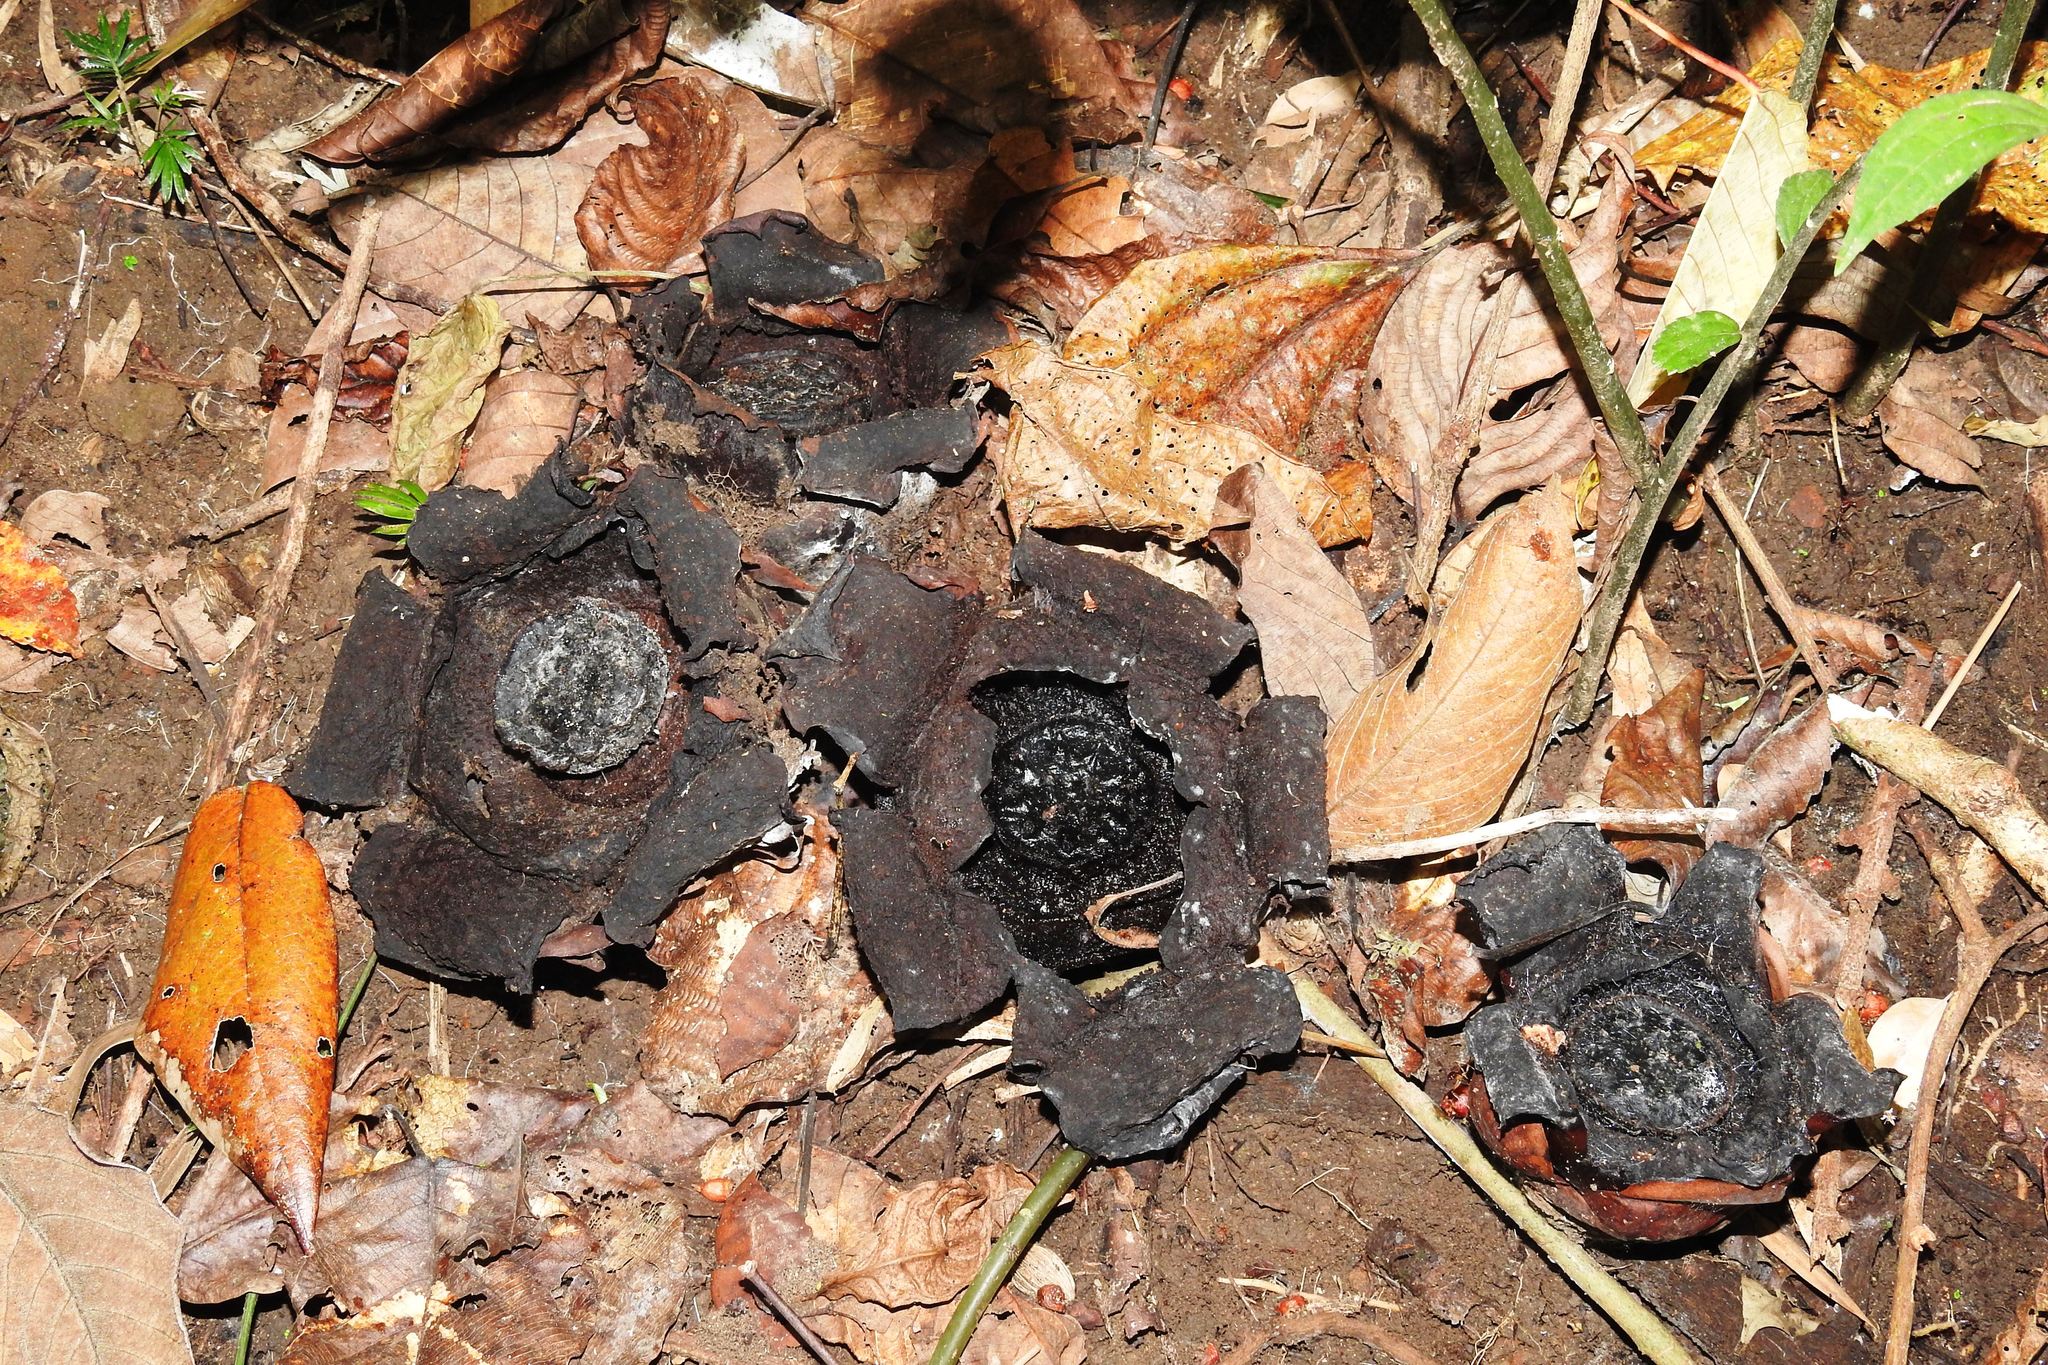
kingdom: Plantae
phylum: Tracheophyta
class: Magnoliopsida
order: Malpighiales
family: Rafflesiaceae
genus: Rafflesia
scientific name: Rafflesia lagascae
